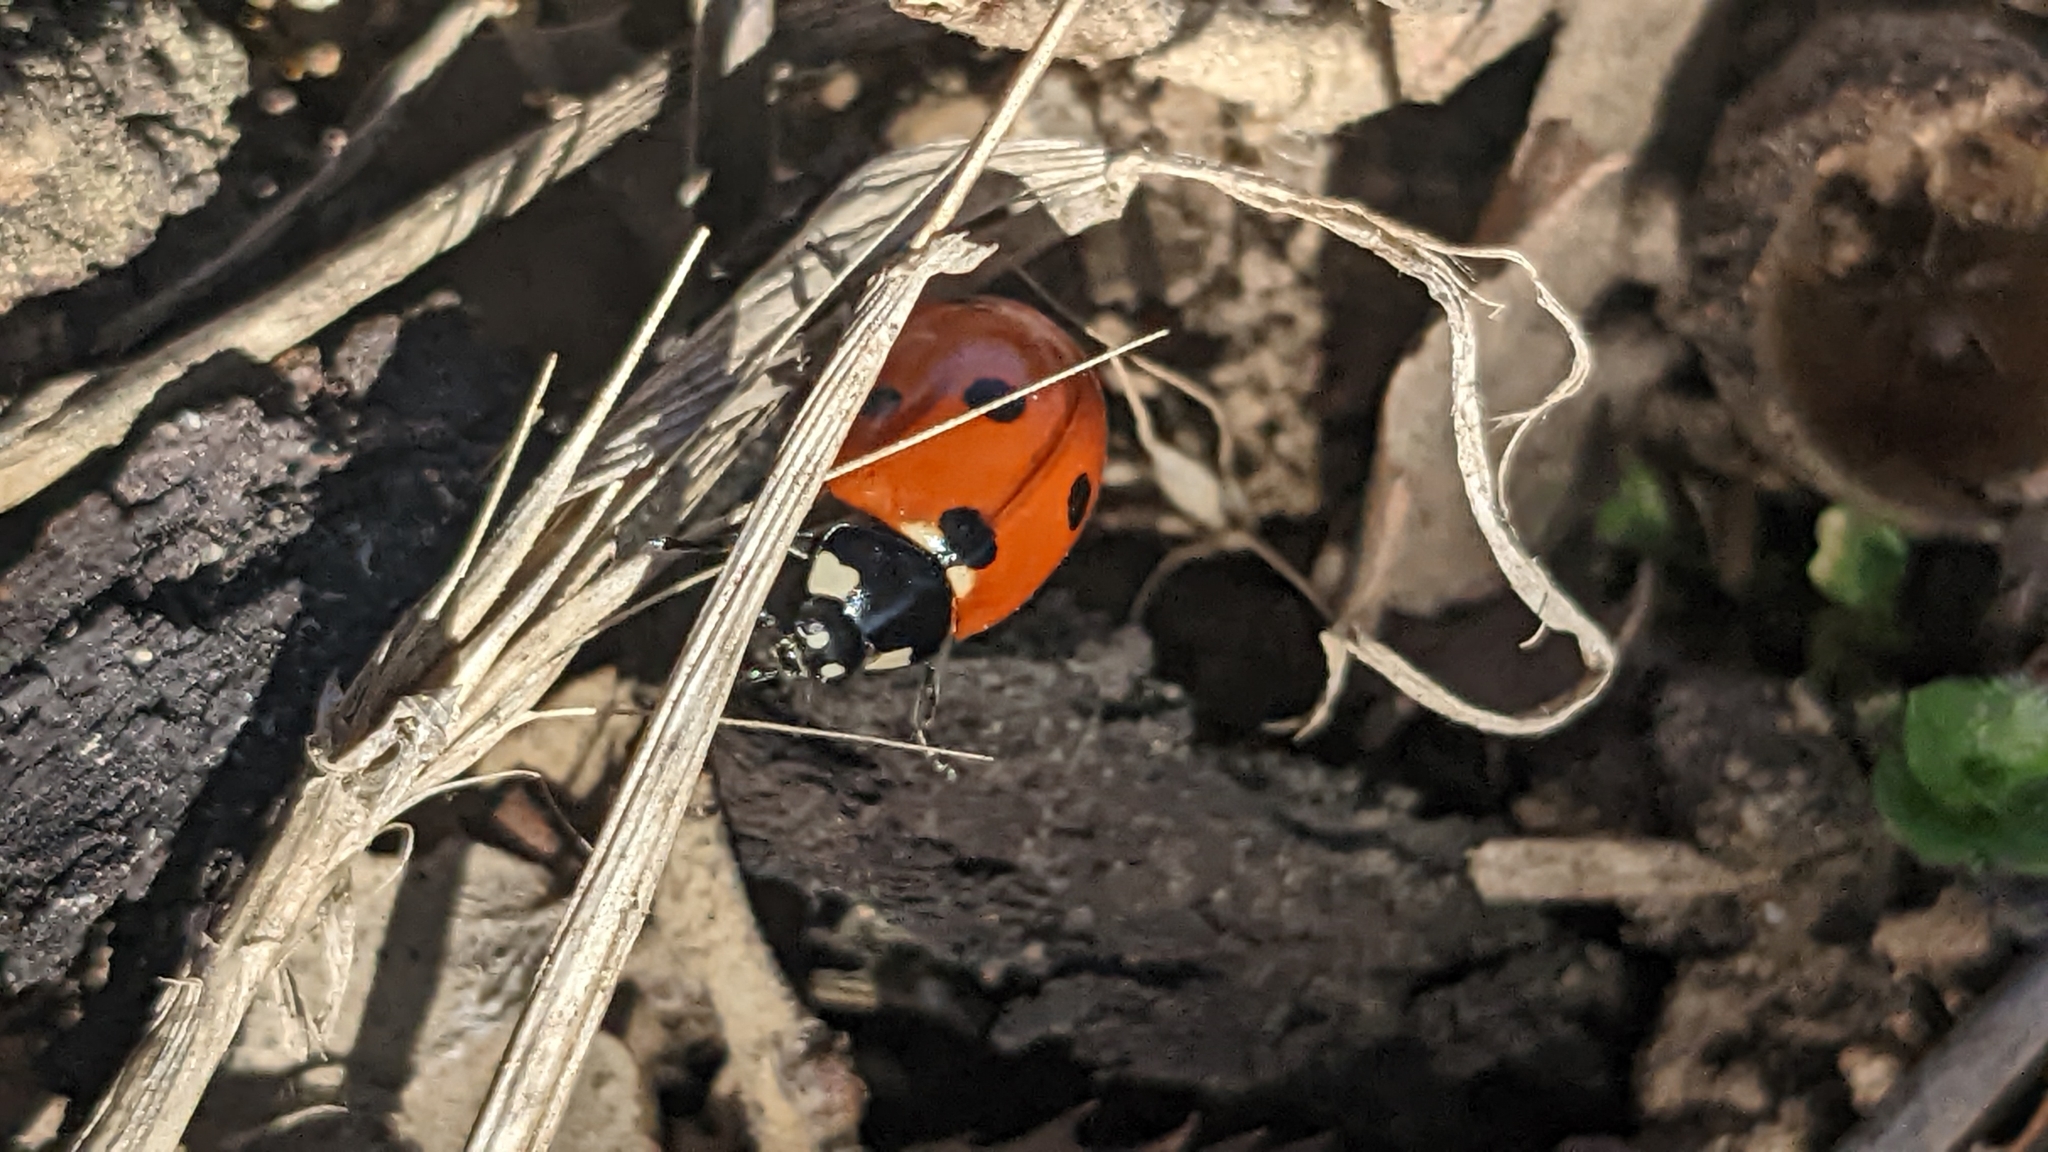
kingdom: Animalia
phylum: Arthropoda
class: Insecta
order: Coleoptera
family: Coccinellidae
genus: Coccinella
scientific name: Coccinella septempunctata
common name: Sevenspotted lady beetle
